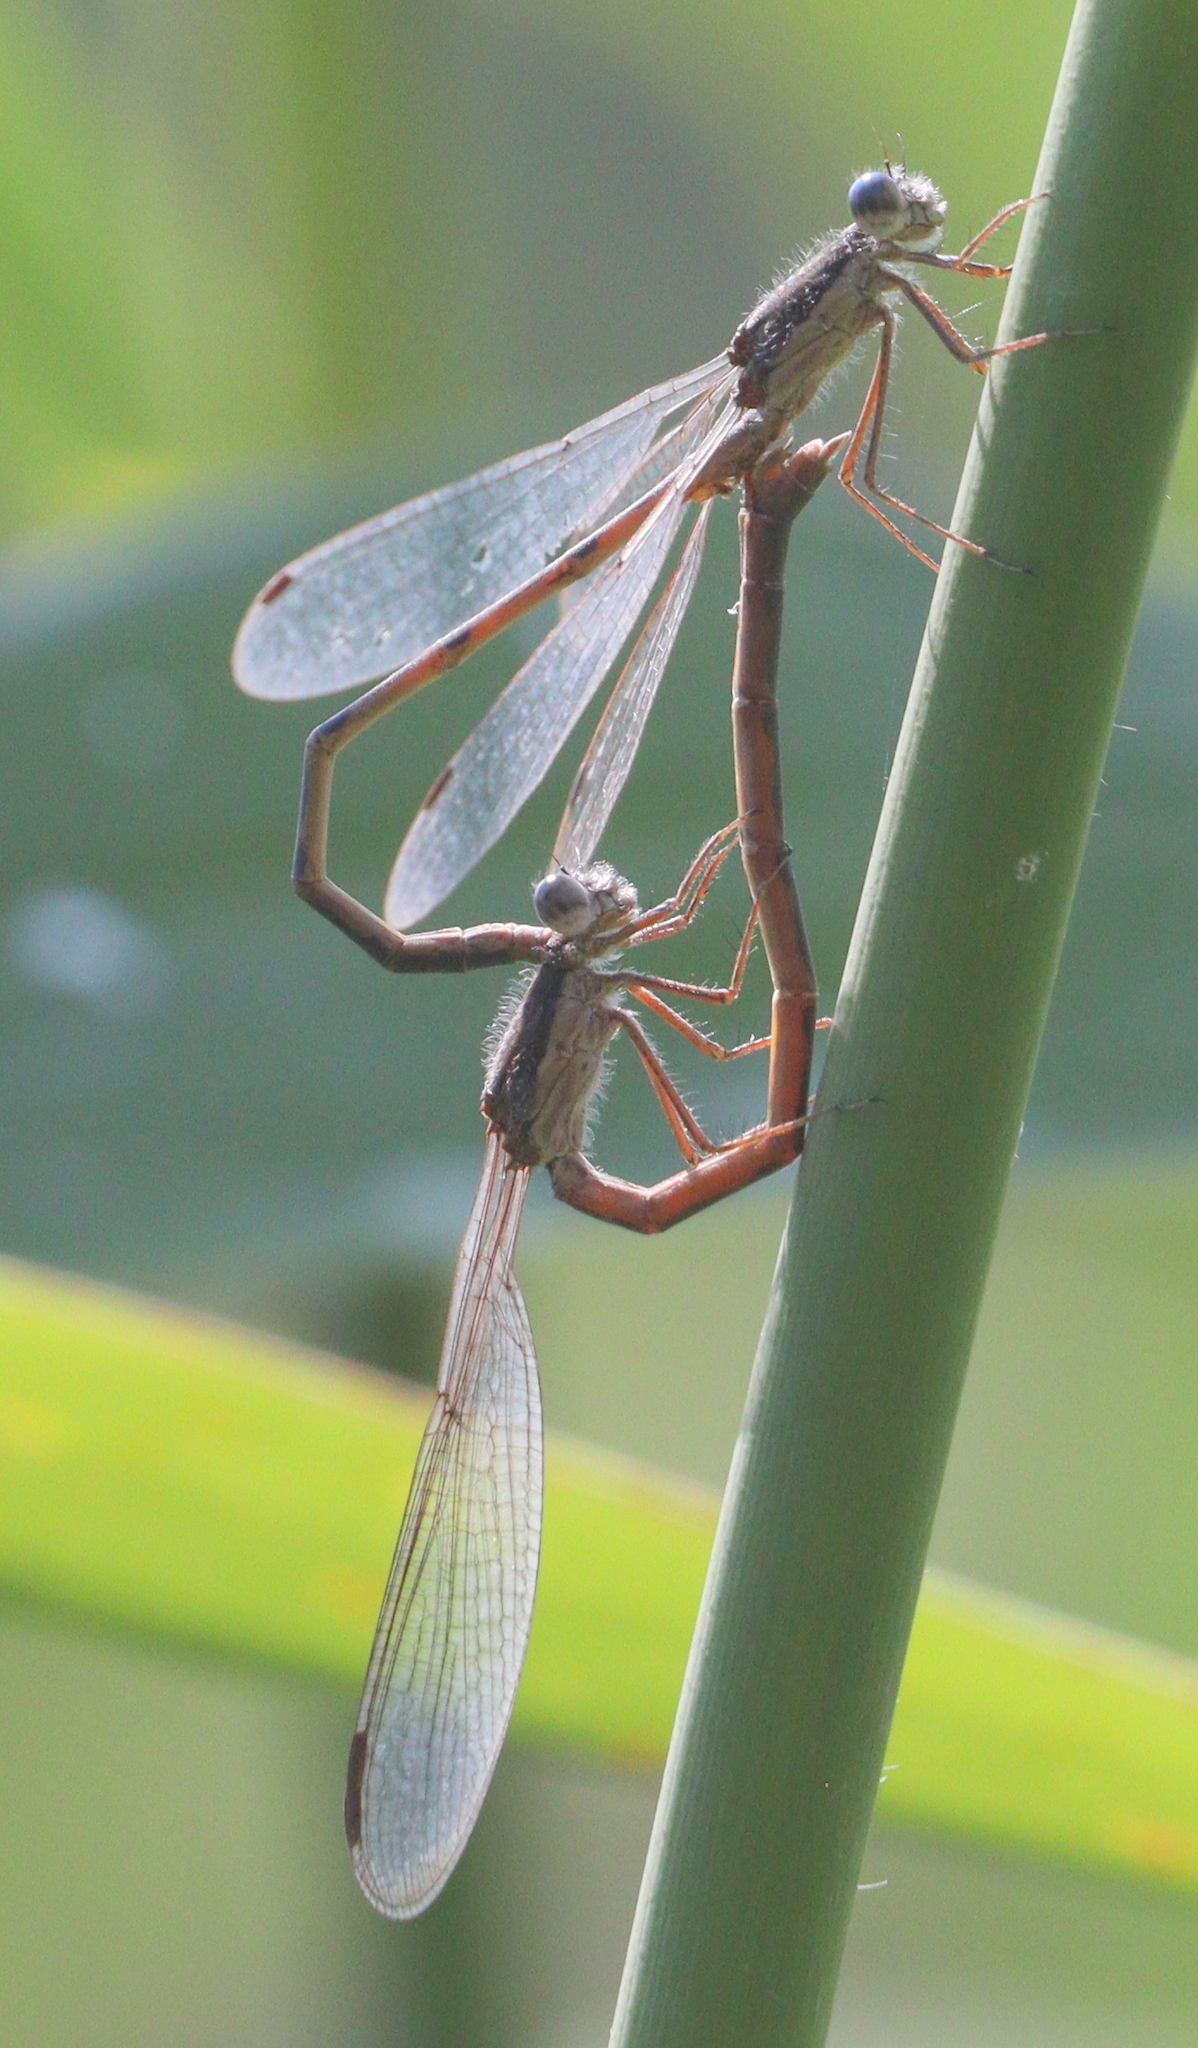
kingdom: Animalia
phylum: Arthropoda
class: Insecta
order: Odonata
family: Lestidae
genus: Sympecma
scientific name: Sympecma fusca
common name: Common winter damsel
